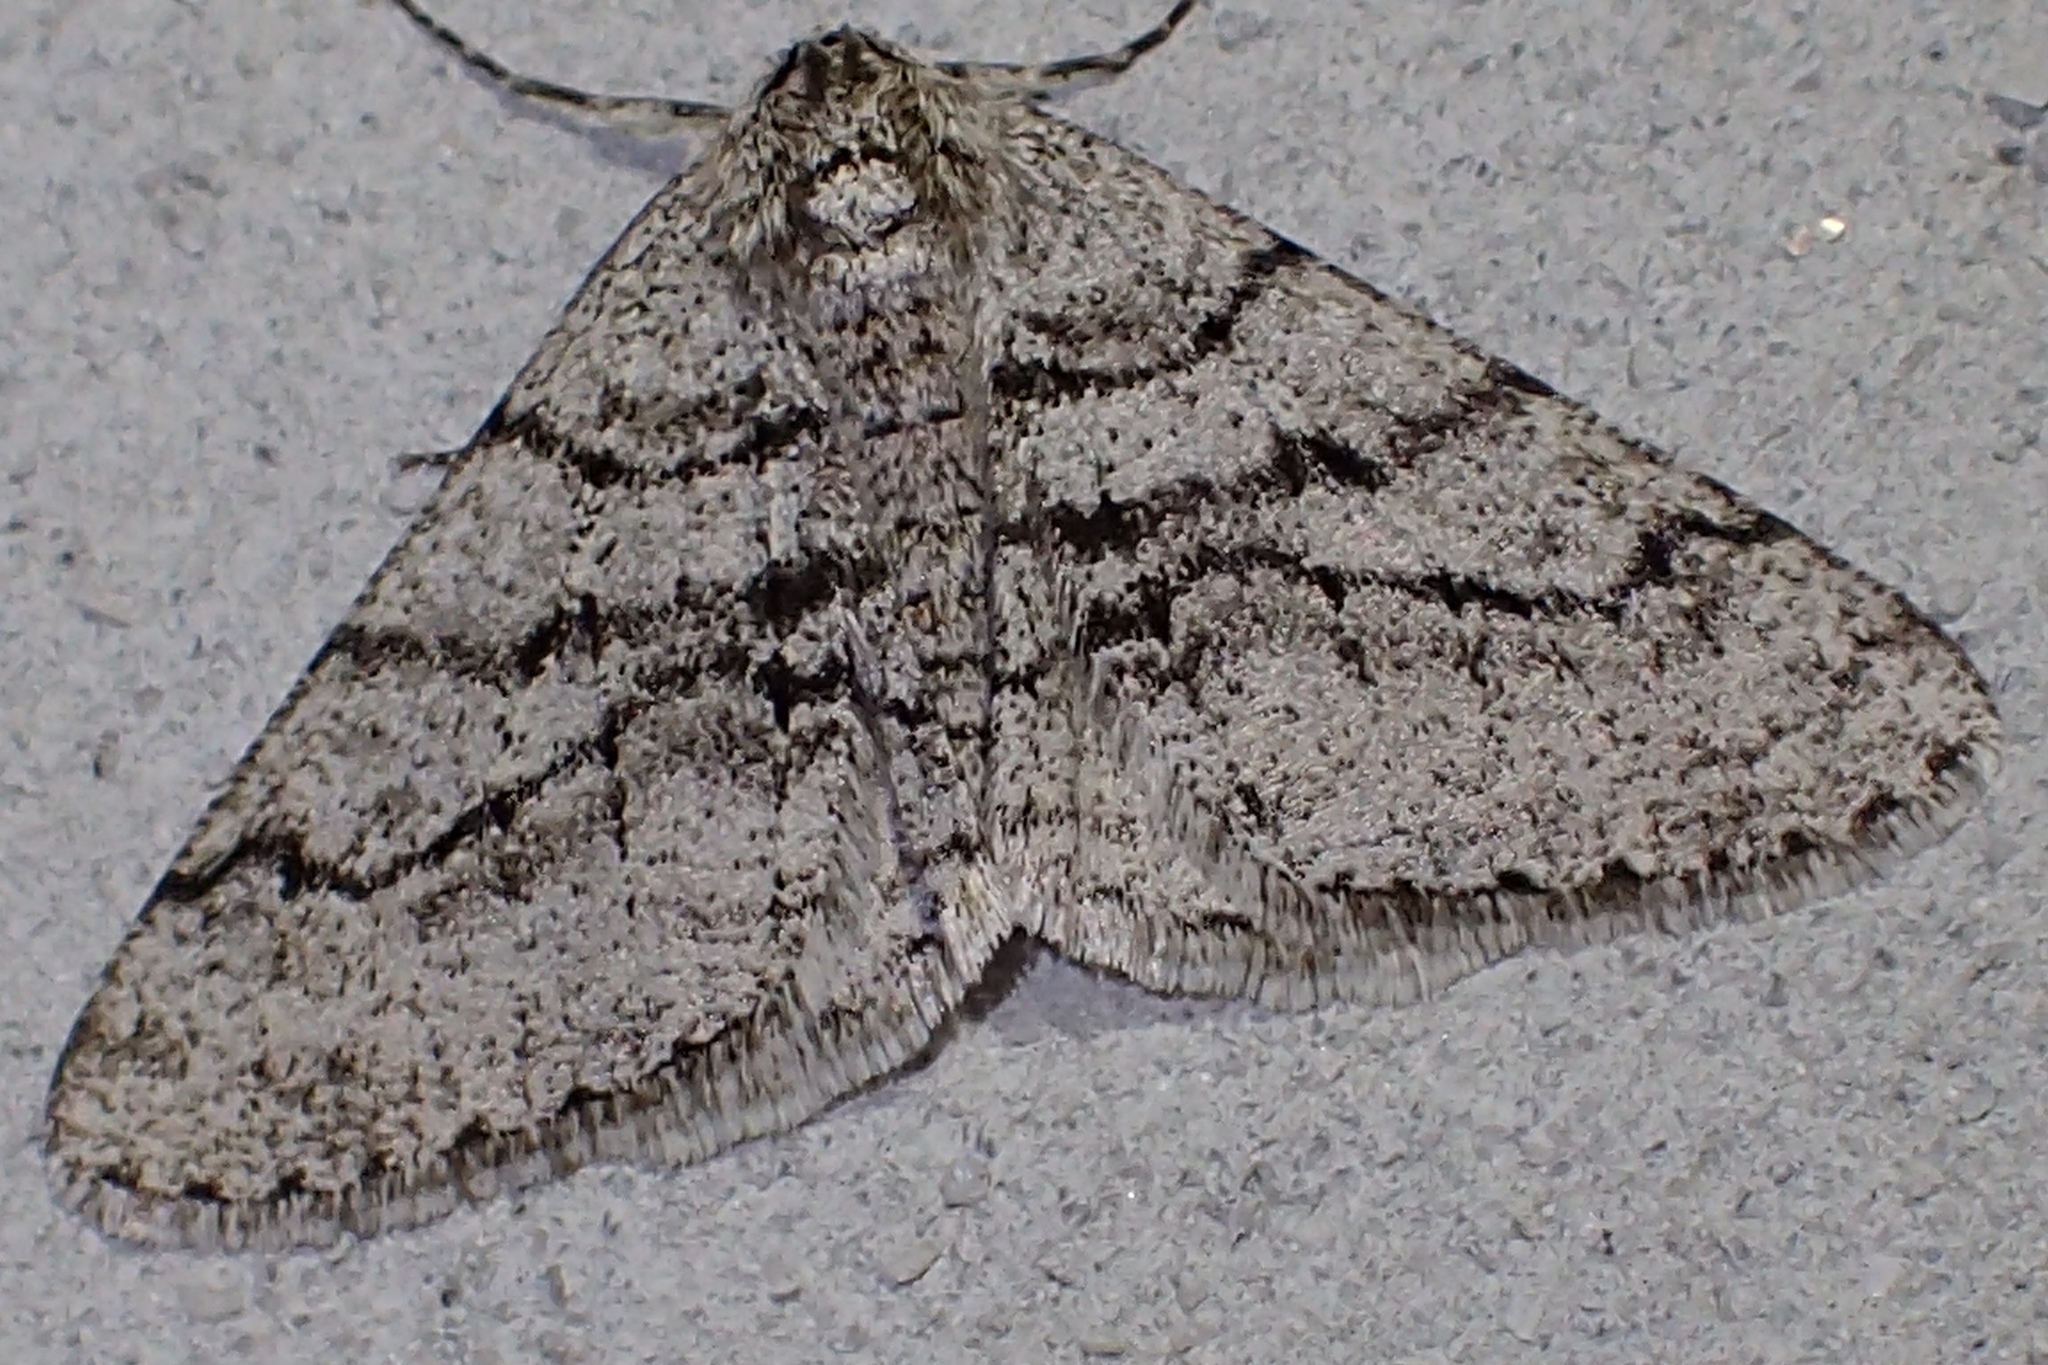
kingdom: Animalia
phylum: Arthropoda
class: Insecta
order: Lepidoptera
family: Geometridae
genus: Phigalia
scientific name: Phigalia titea
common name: Spiny looper
